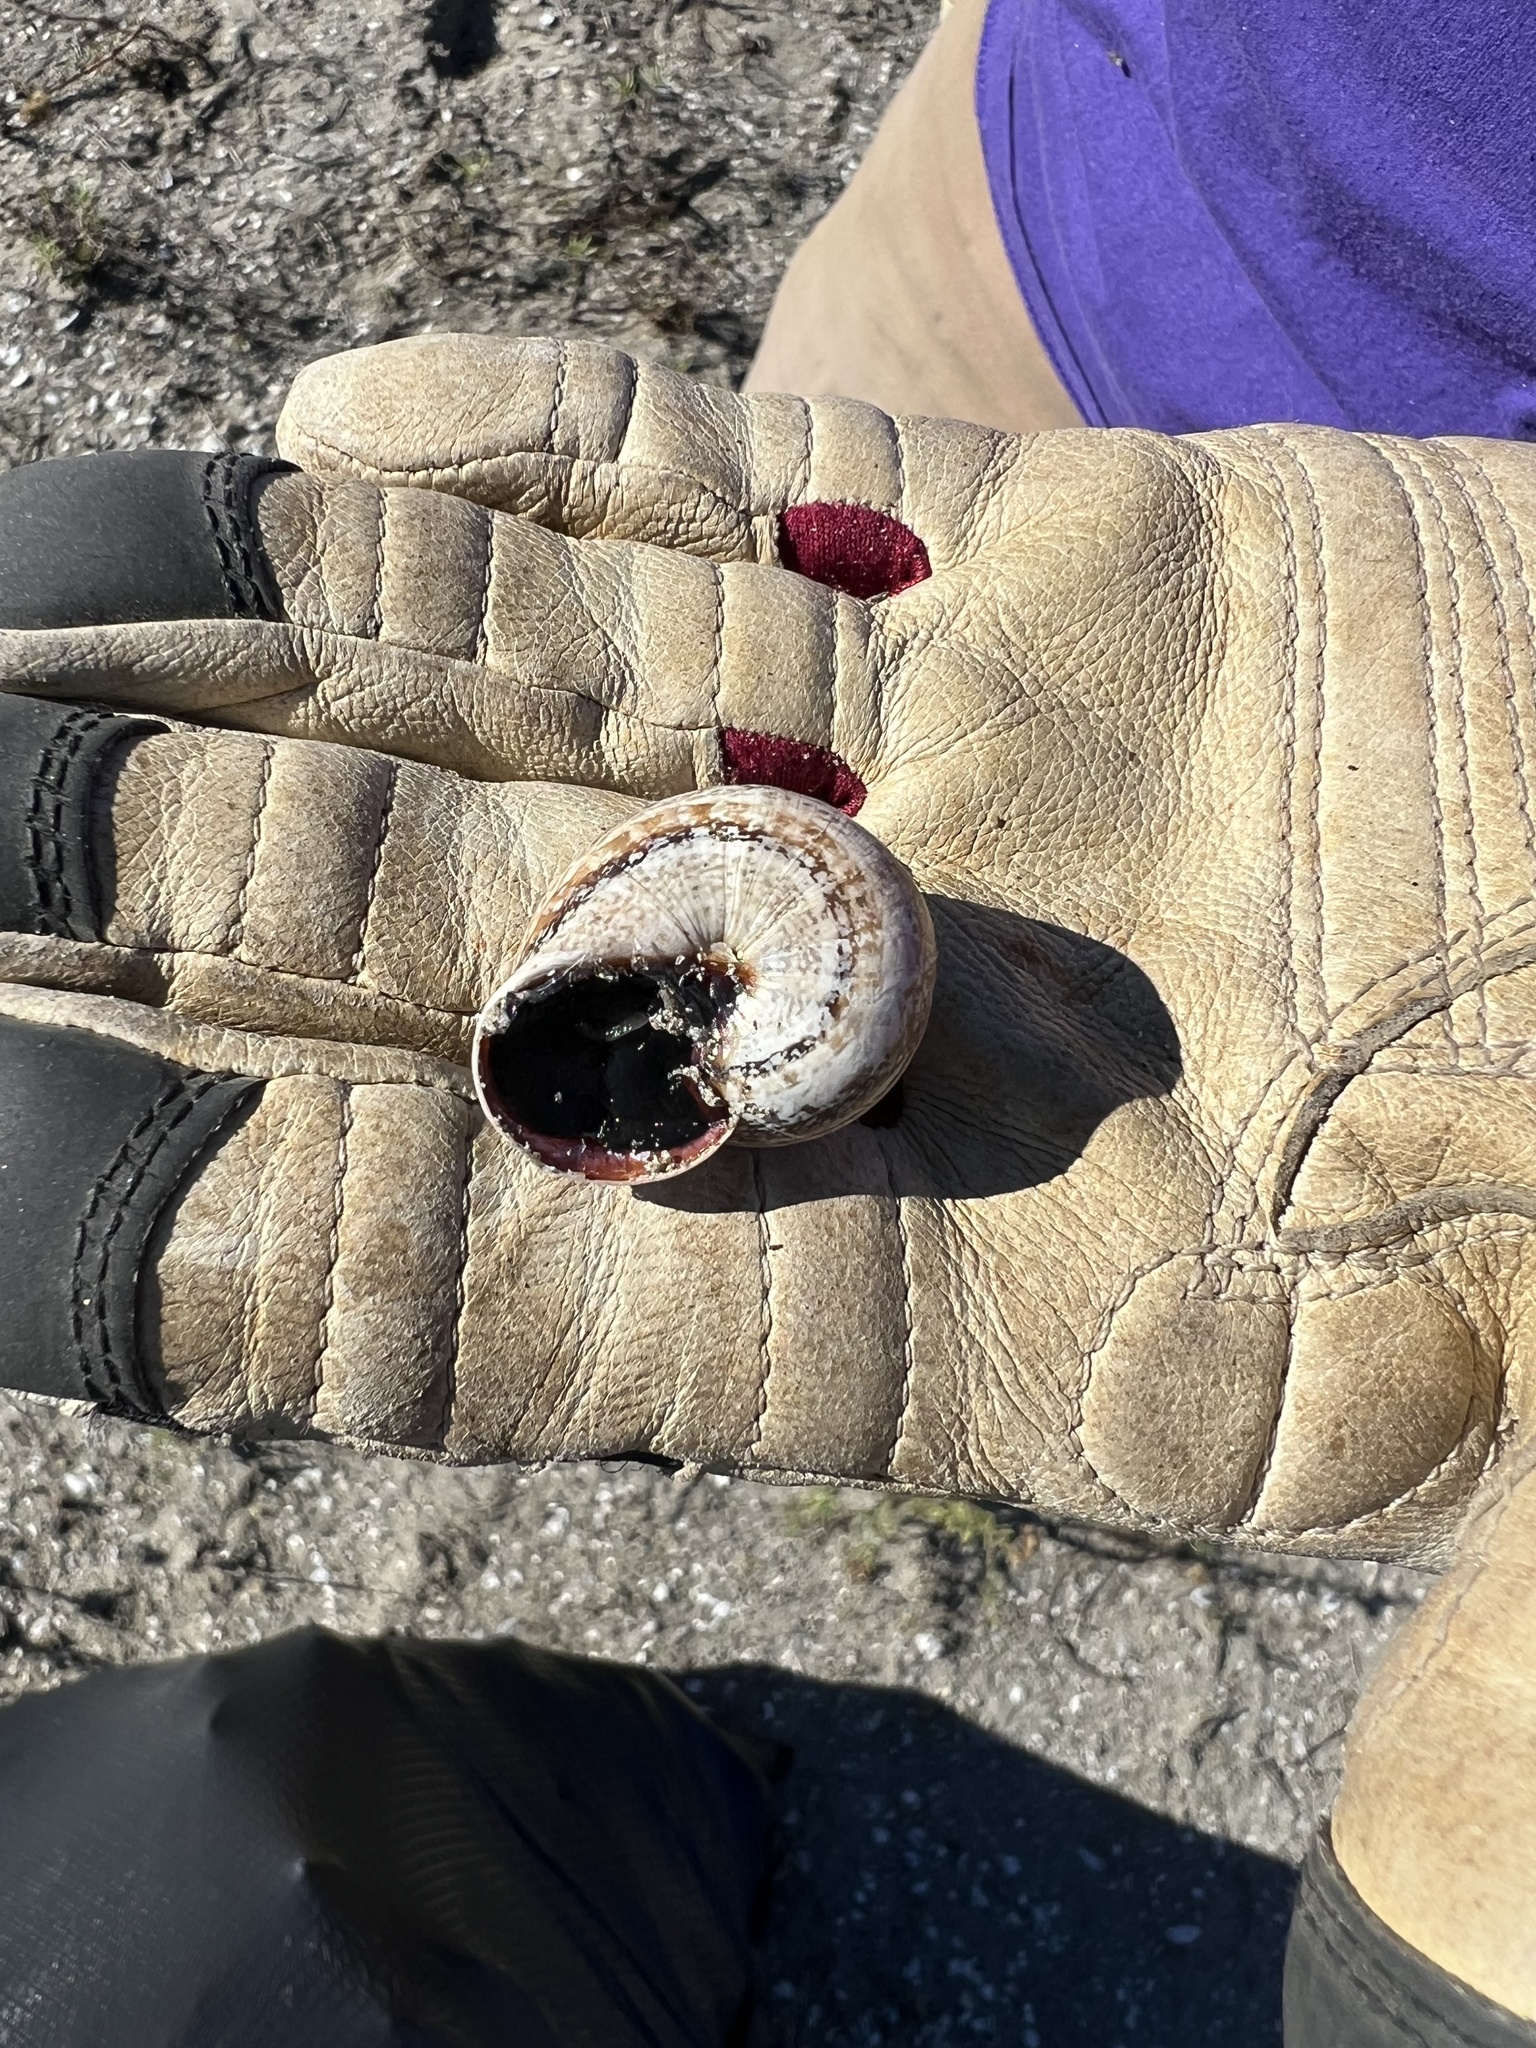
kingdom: Animalia
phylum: Mollusca
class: Gastropoda
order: Stylommatophora
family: Helicidae
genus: Otala
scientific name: Otala lactea
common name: Milk snail
